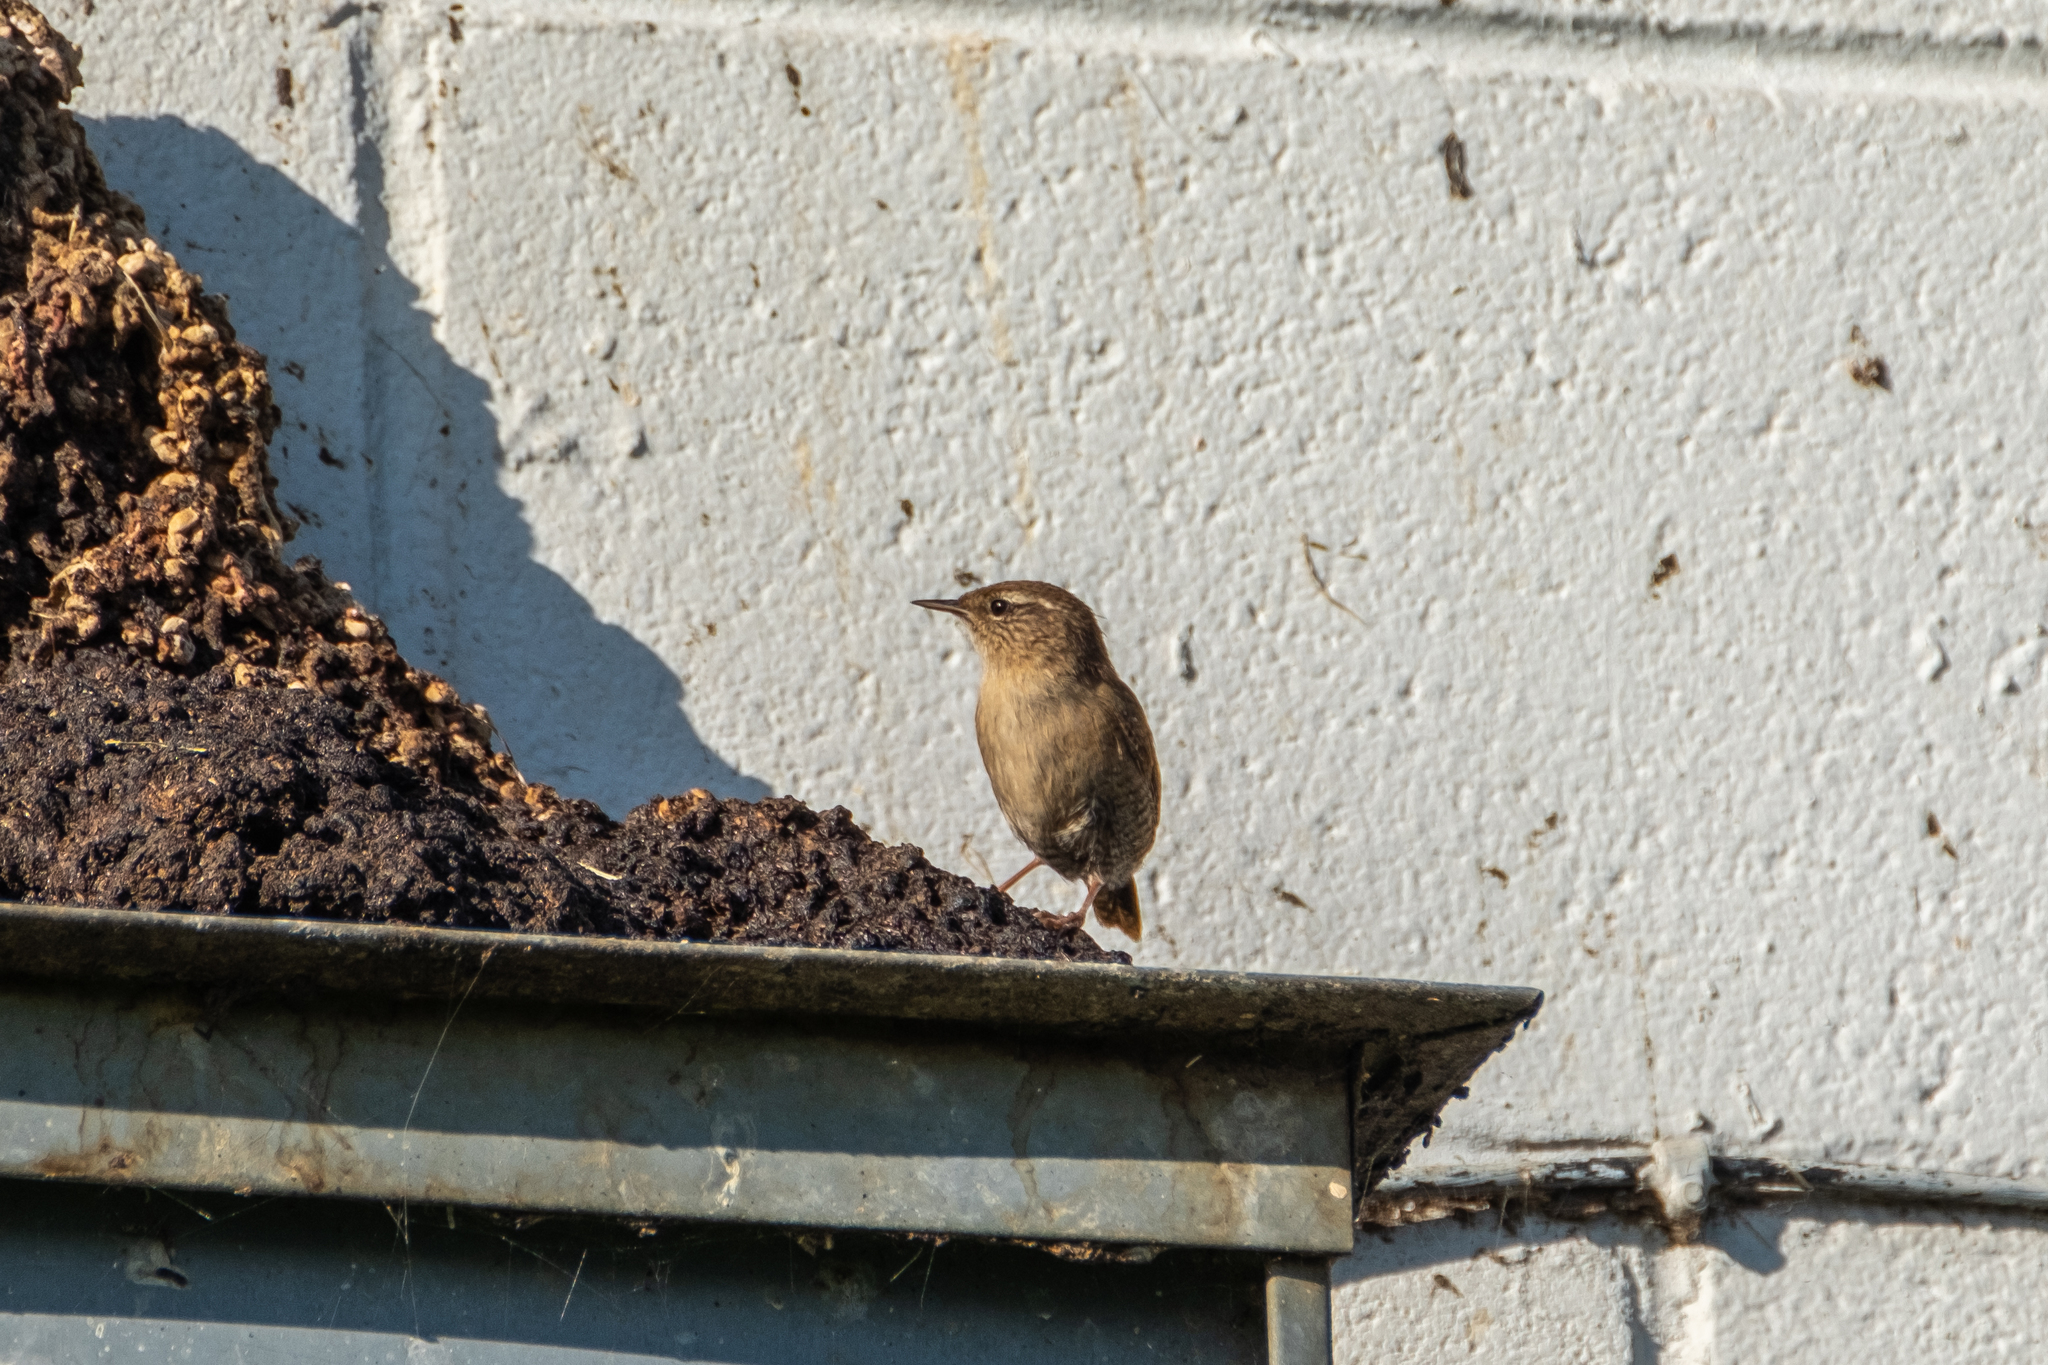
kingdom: Animalia
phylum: Chordata
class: Aves
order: Passeriformes
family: Troglodytidae
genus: Troglodytes
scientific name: Troglodytes troglodytes
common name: Eurasian wren
